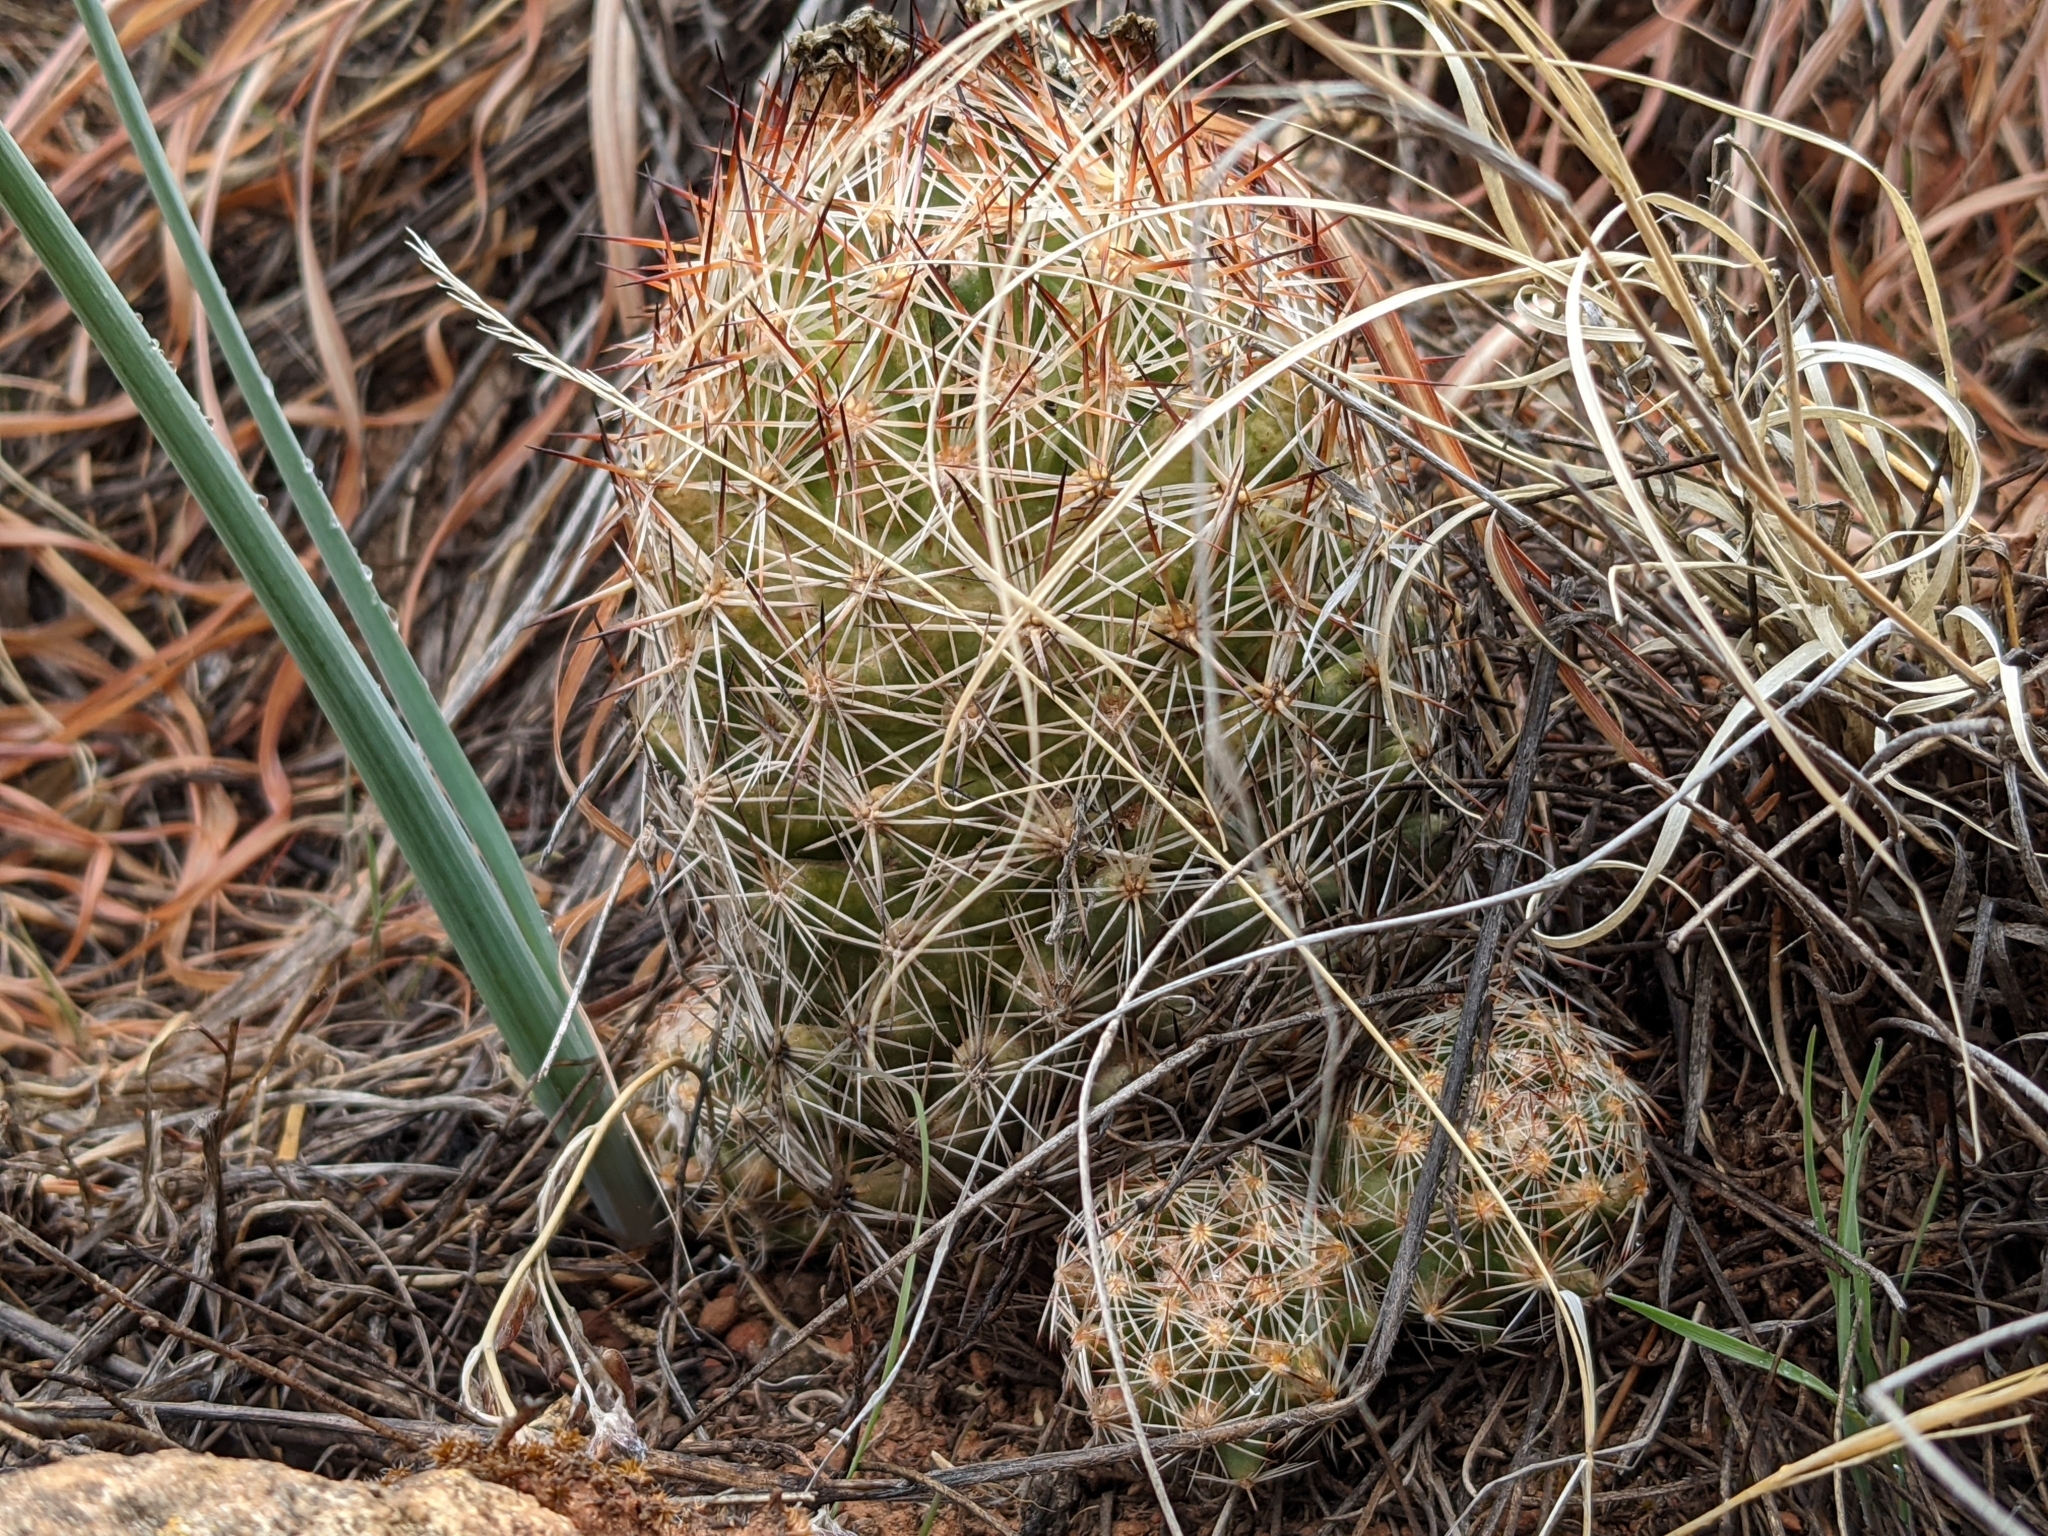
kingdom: Plantae
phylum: Tracheophyta
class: Magnoliopsida
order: Caryophyllales
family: Cactaceae
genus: Pelecyphora
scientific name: Pelecyphora vivipara
